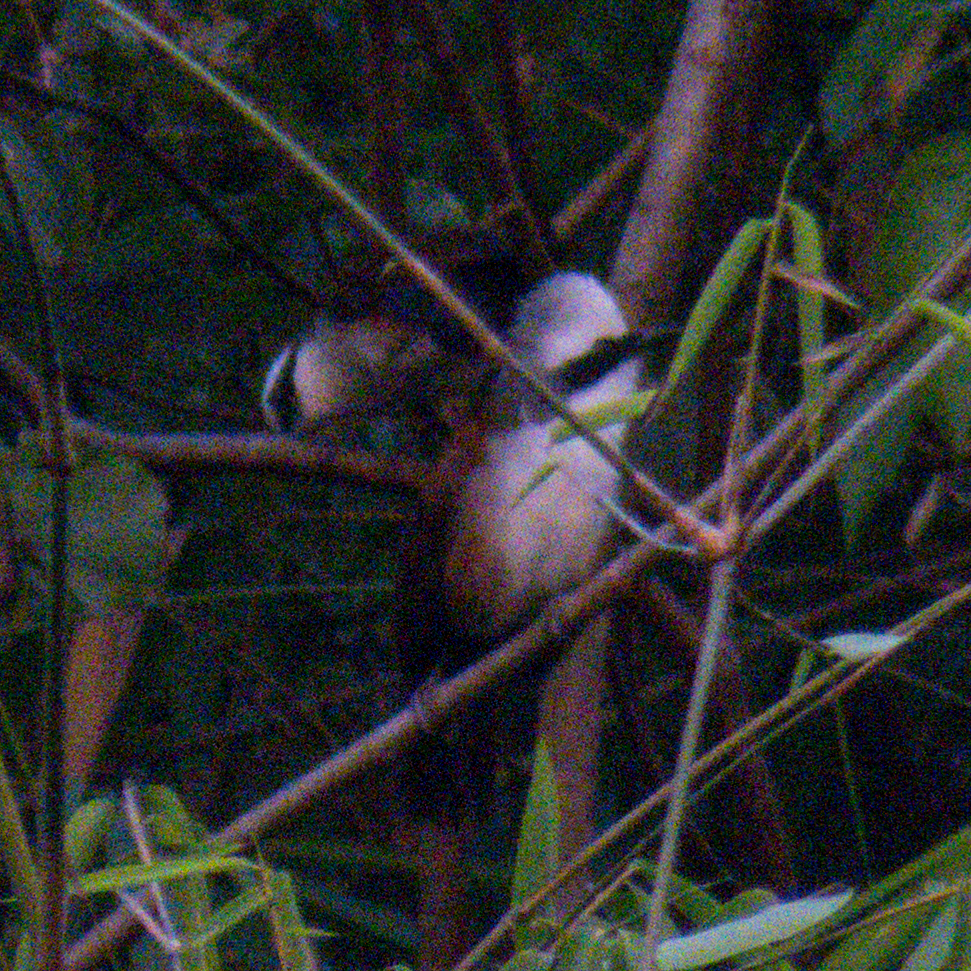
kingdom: Animalia
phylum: Chordata
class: Aves
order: Passeriformes
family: Leiothrichidae
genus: Garrulax
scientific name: Garrulax leucolophus
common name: White-crested laughingthrush
